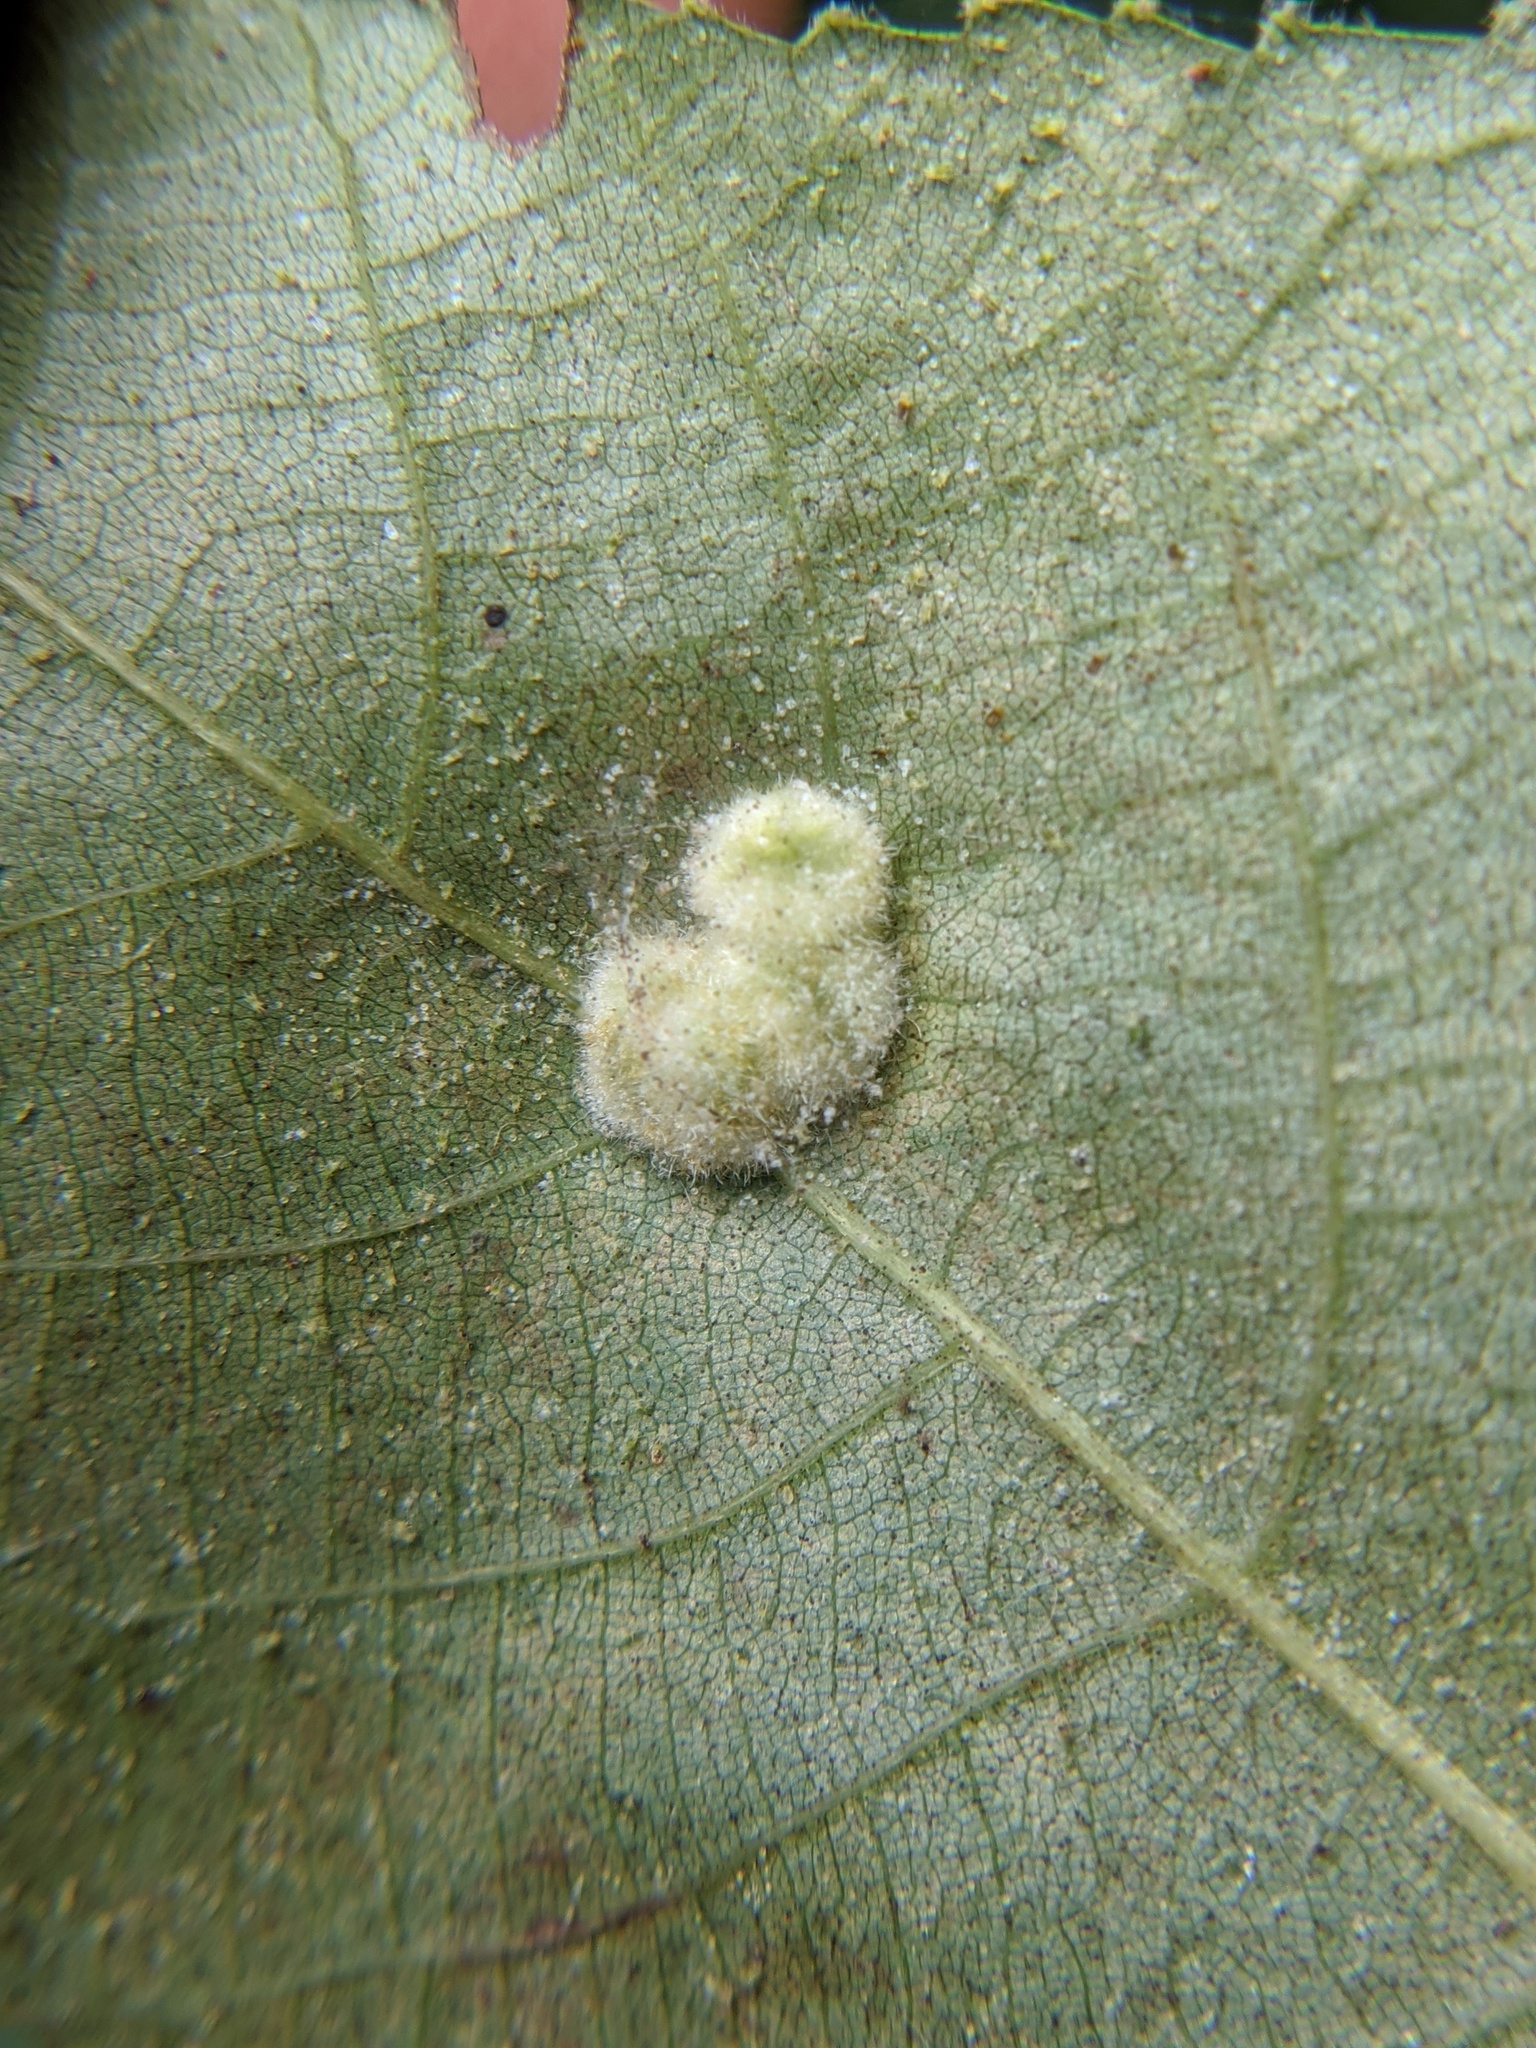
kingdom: Animalia
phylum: Arthropoda
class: Insecta
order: Diptera
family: Cecidomyiidae
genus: Caryomyia
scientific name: Caryomyia aggregata
